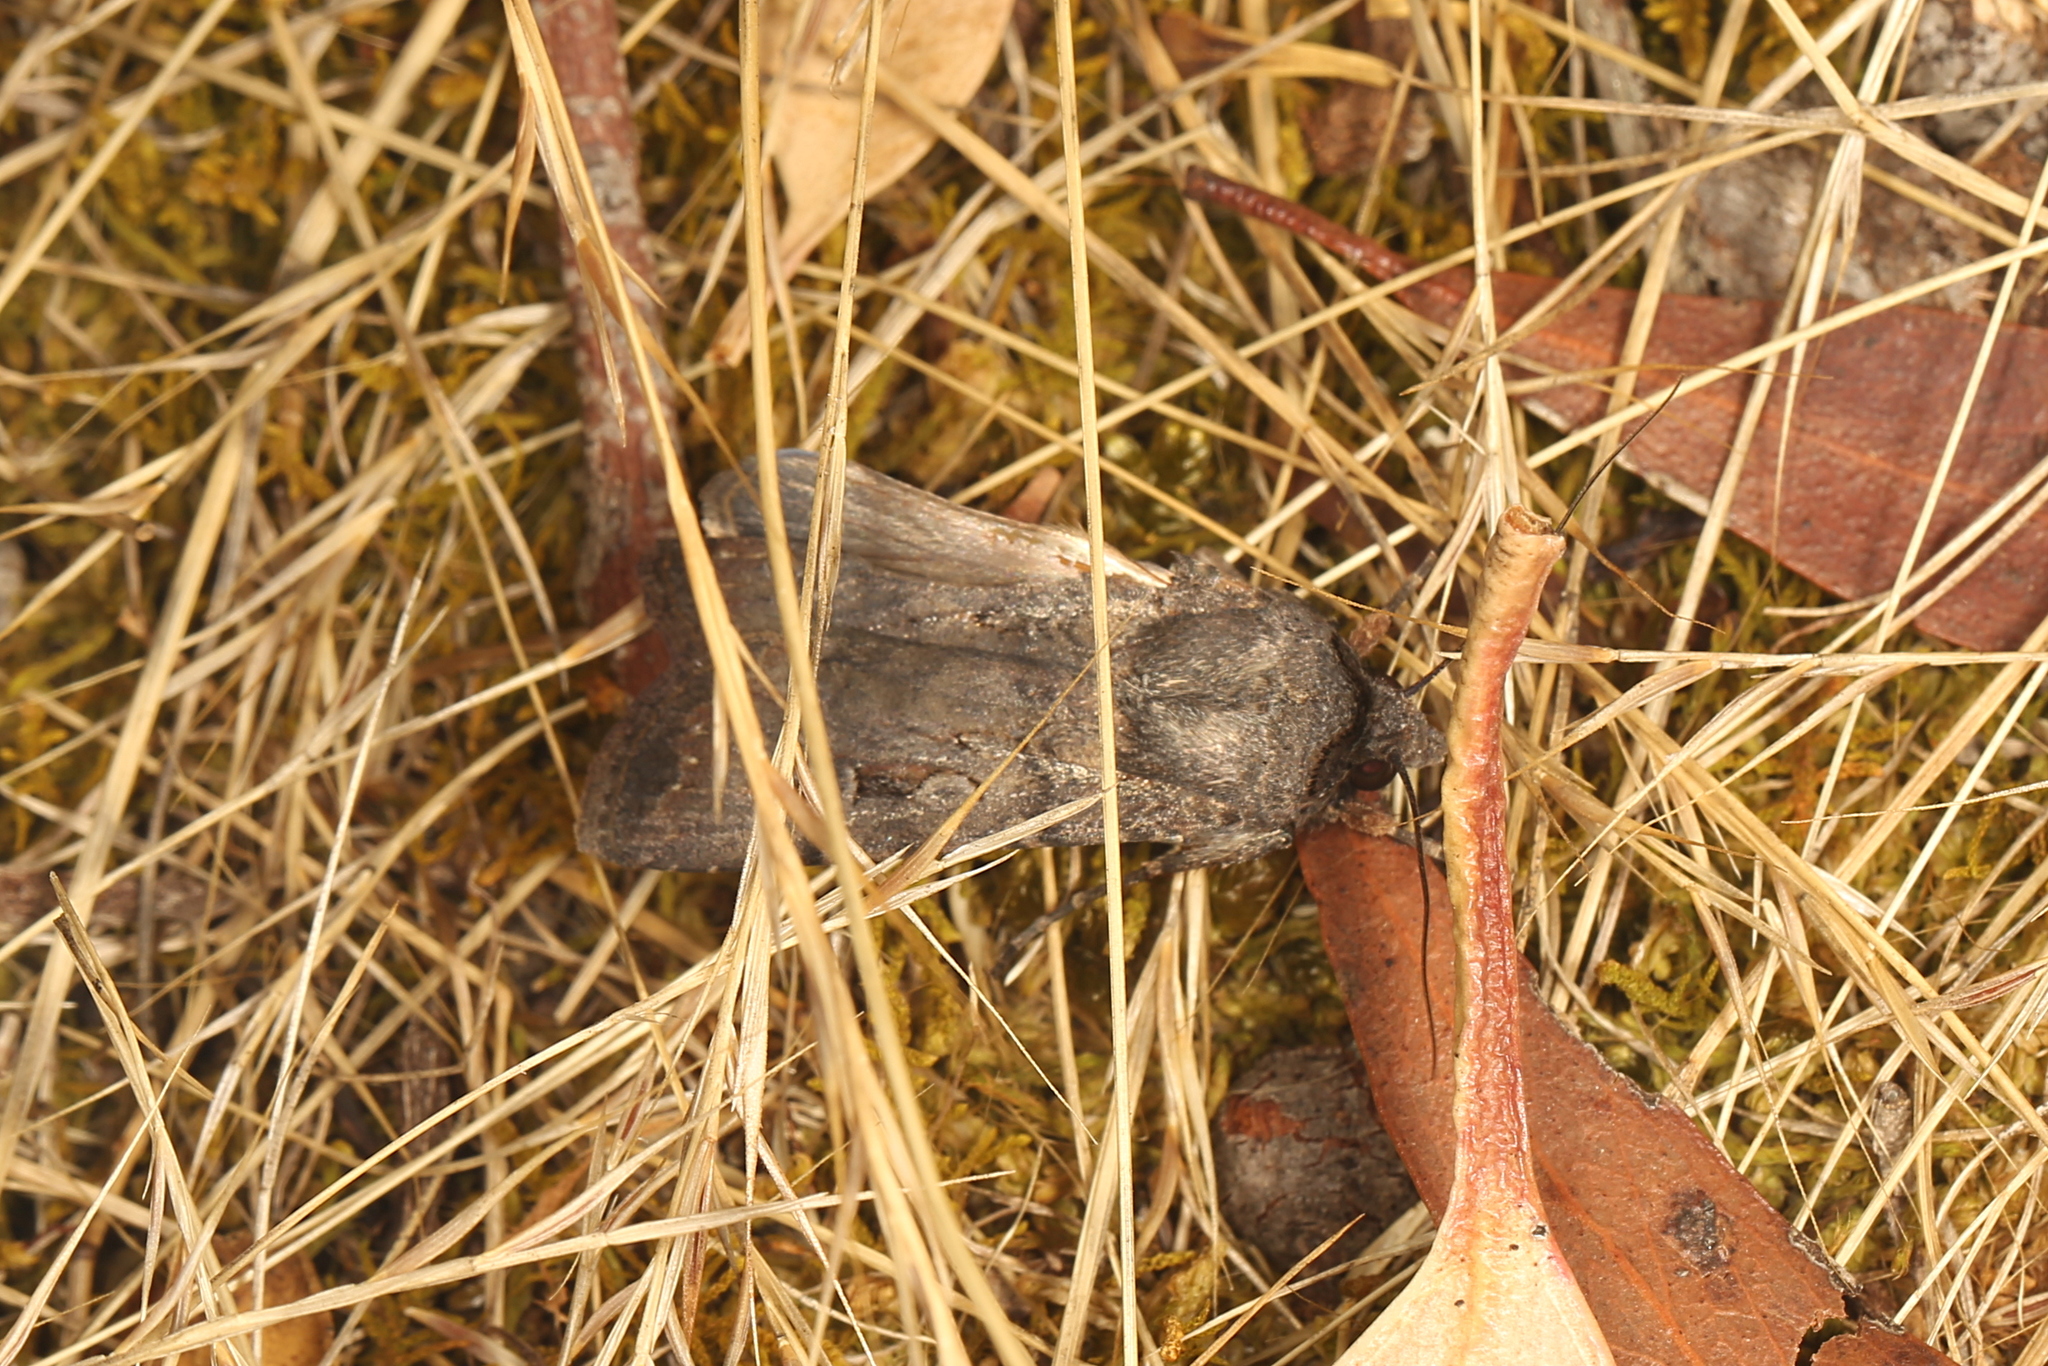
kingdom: Animalia
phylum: Arthropoda
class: Insecta
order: Lepidoptera
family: Noctuidae
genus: Agrotis
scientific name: Agrotis infusa
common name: Bogong moth
